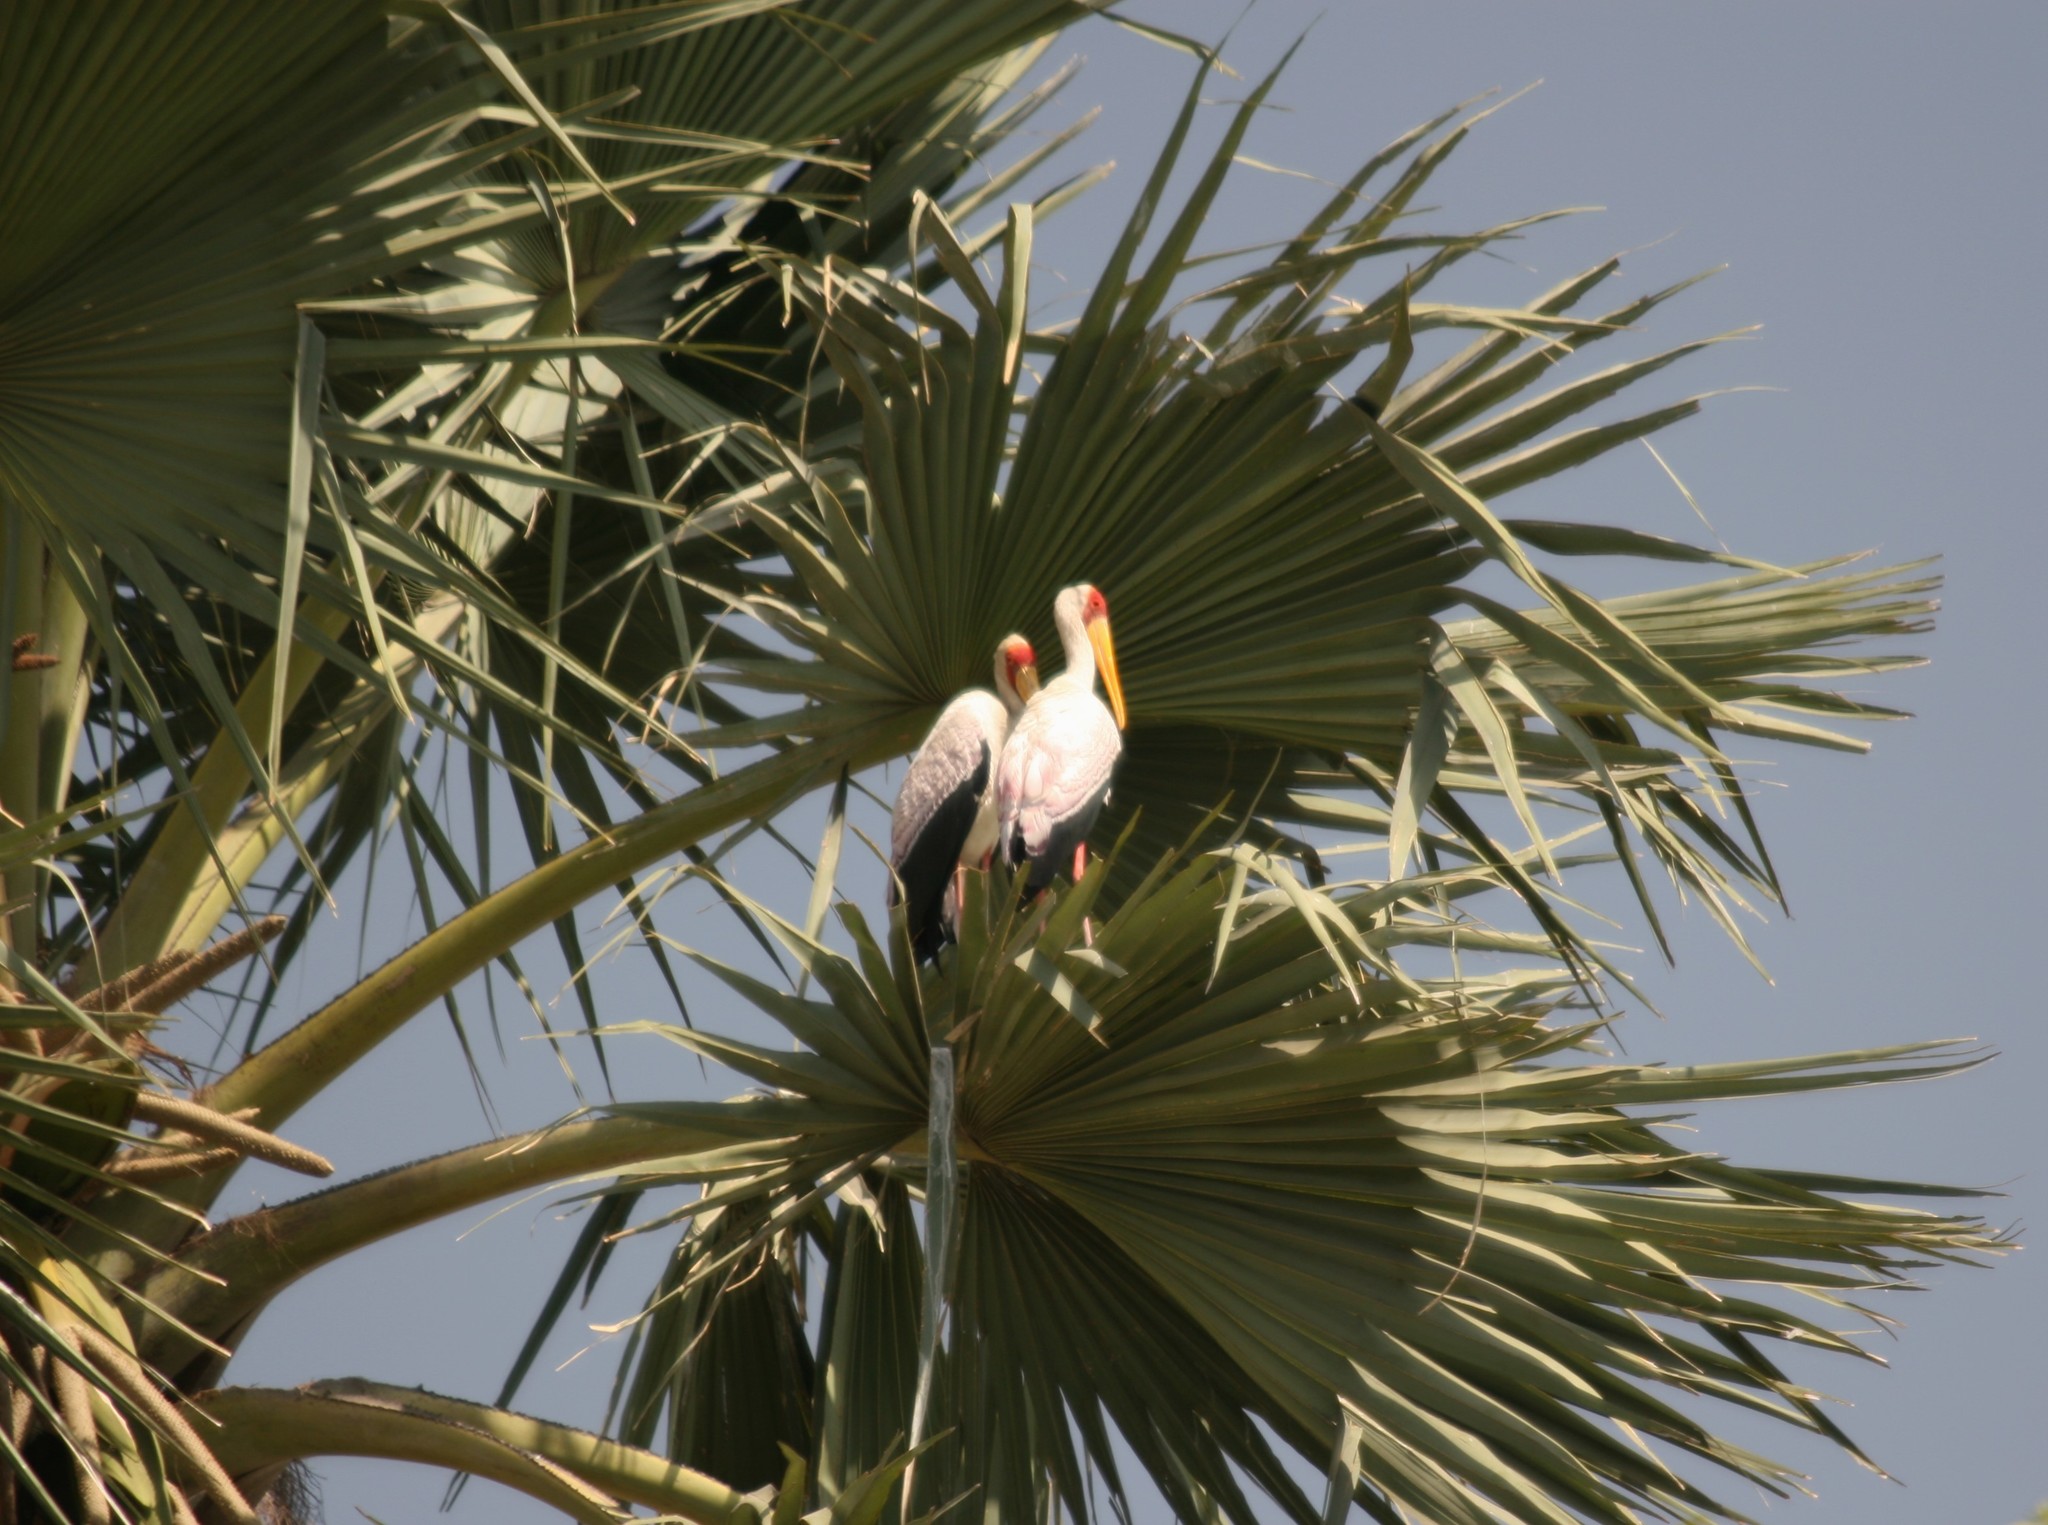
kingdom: Animalia
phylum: Chordata
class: Aves
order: Ciconiiformes
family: Ciconiidae
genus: Mycteria
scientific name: Mycteria ibis
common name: Yellow-billed stork
